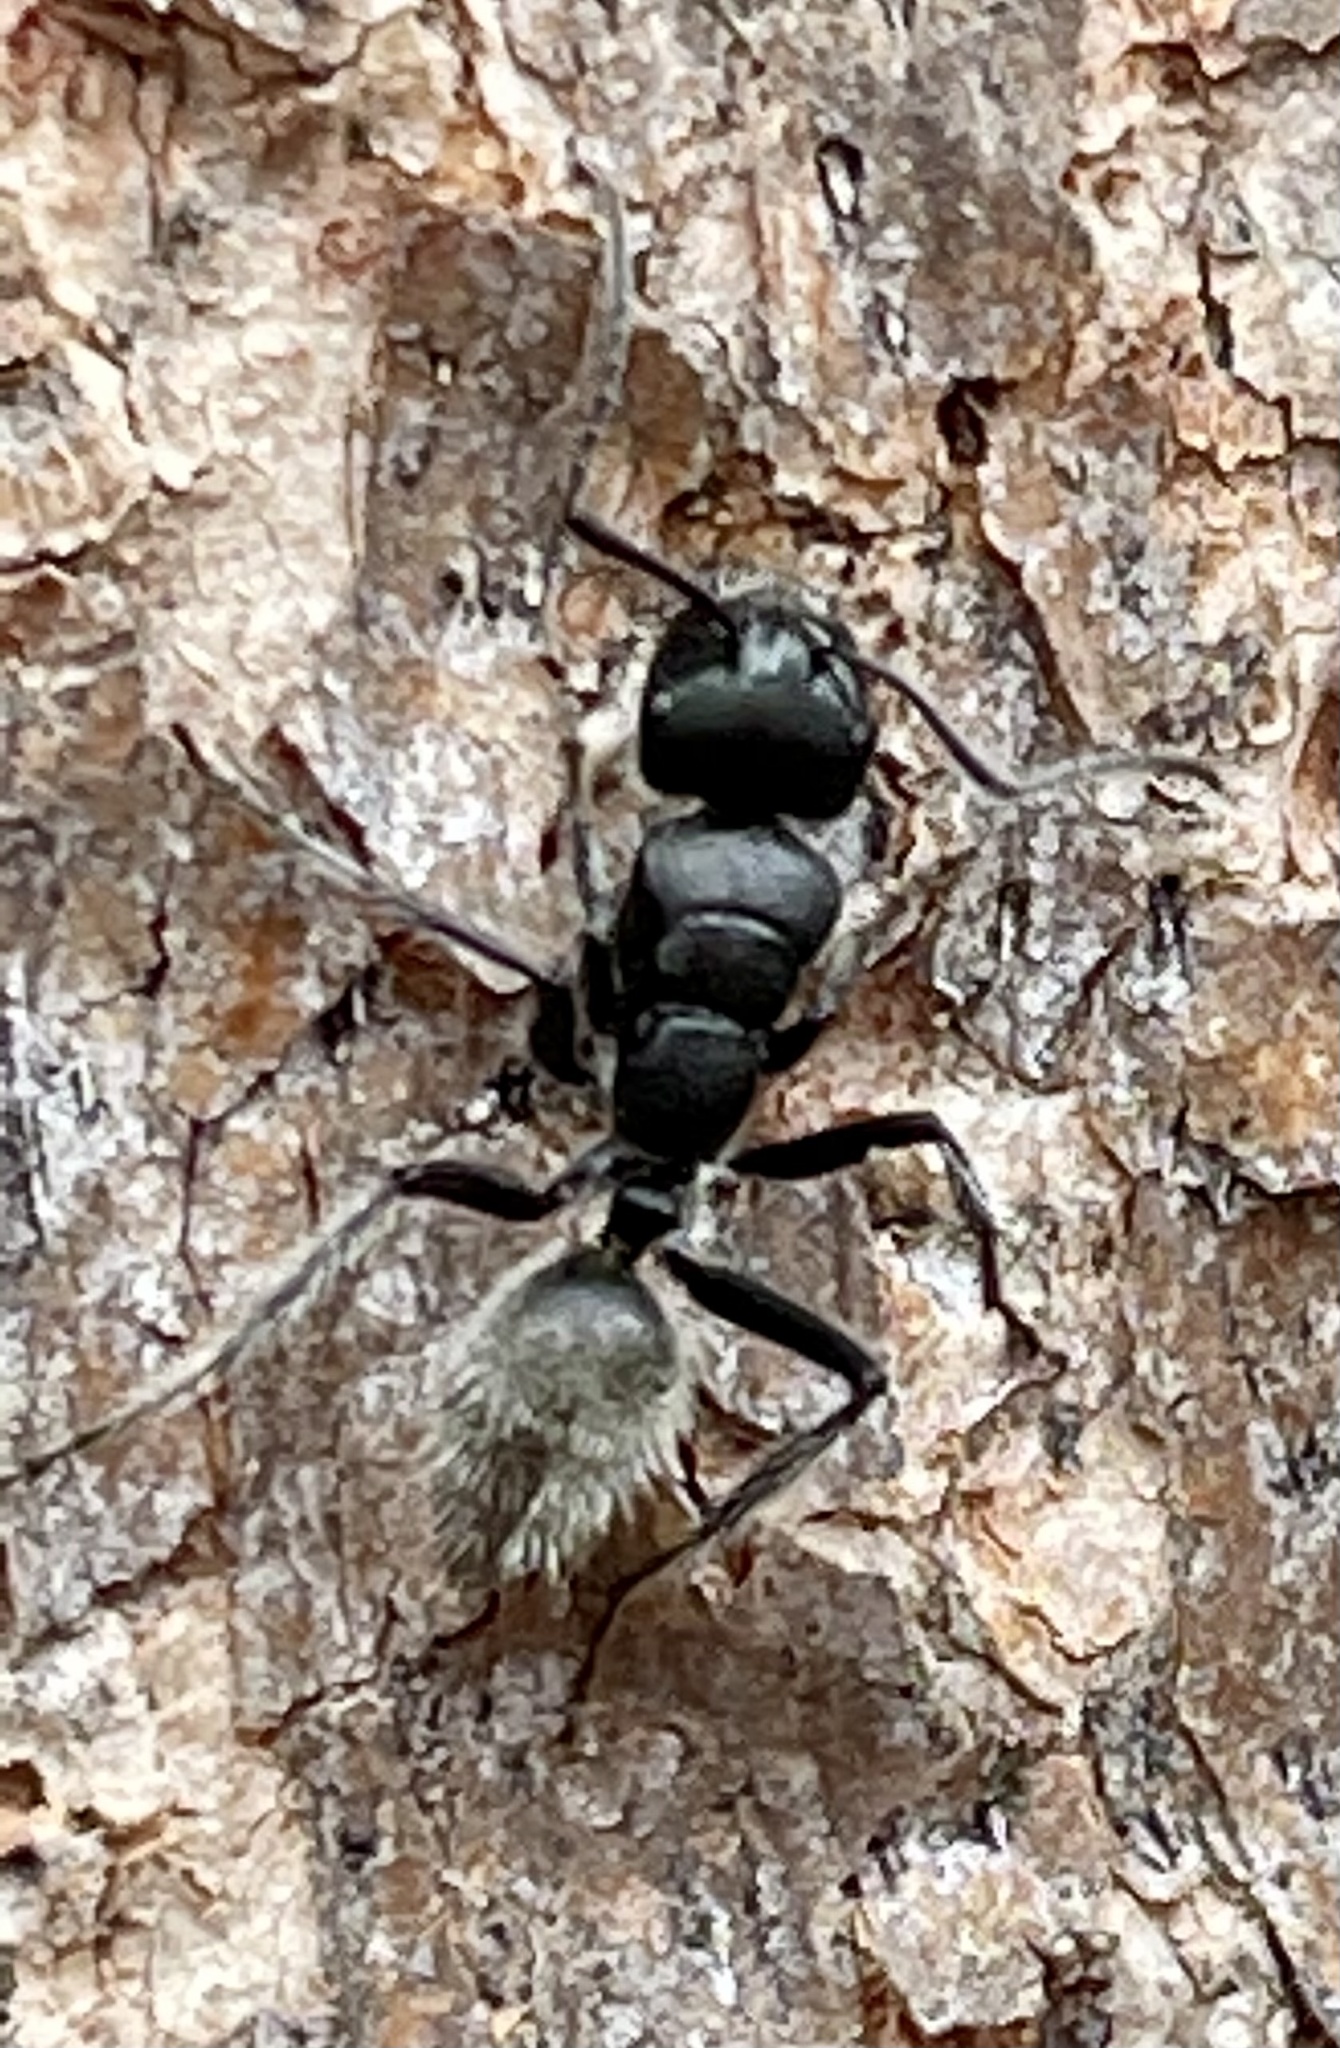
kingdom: Animalia
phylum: Arthropoda
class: Insecta
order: Hymenoptera
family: Formicidae
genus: Calomyrmex
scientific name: Calomyrmex albopilosus
